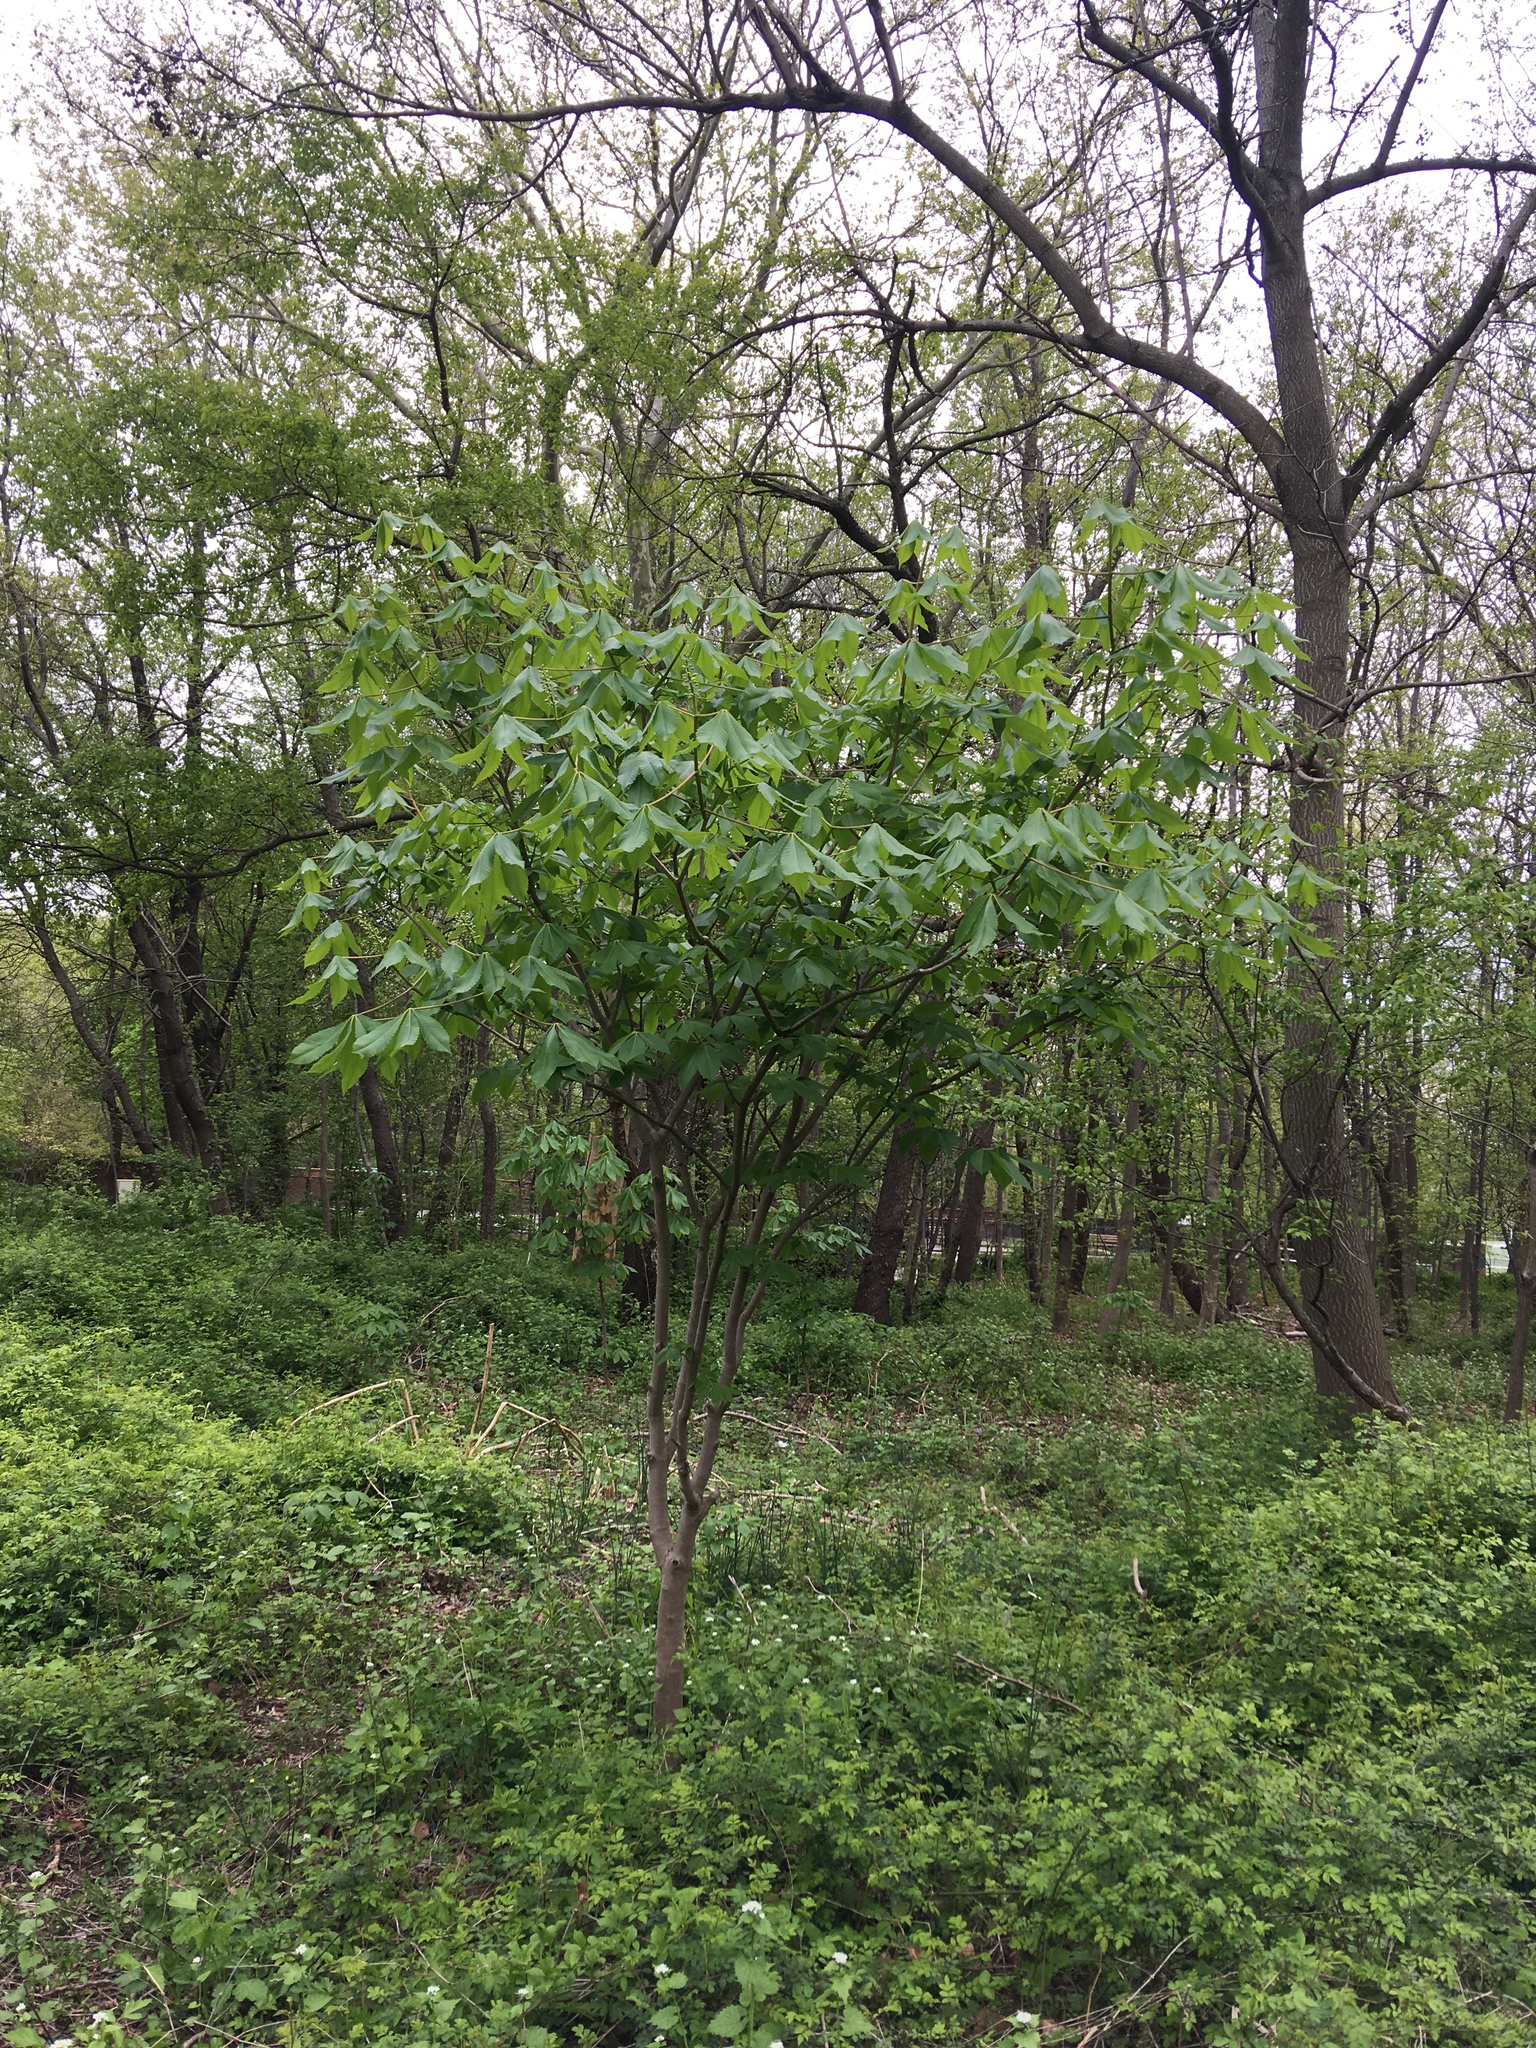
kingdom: Plantae
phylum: Tracheophyta
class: Magnoliopsida
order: Sapindales
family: Sapindaceae
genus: Aesculus
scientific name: Aesculus glabra
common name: Ohio buckeye
